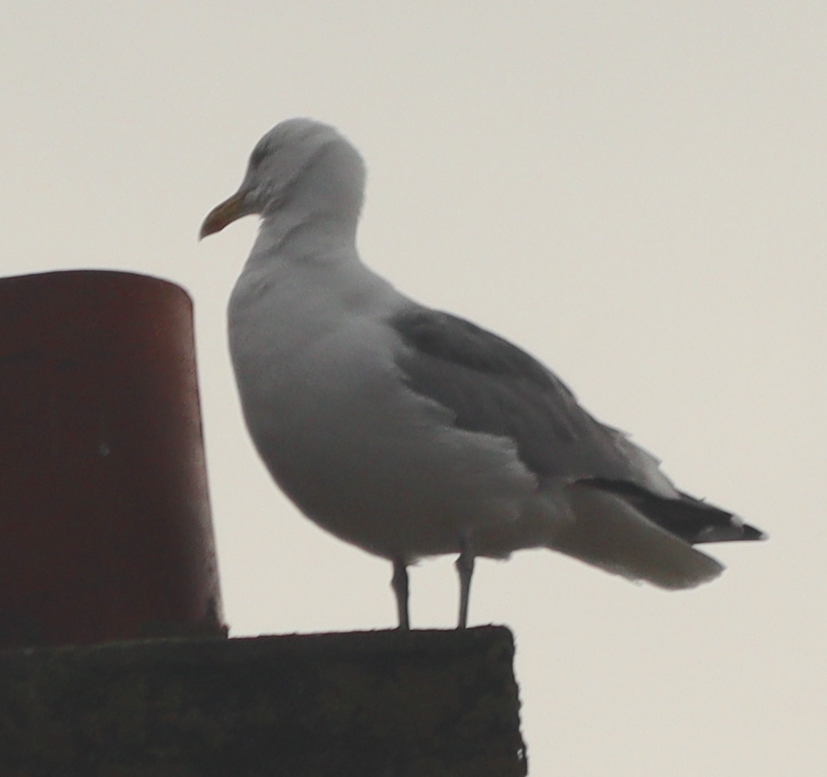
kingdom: Animalia
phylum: Chordata
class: Aves
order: Charadriiformes
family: Laridae
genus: Larus
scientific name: Larus argentatus
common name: Herring gull
